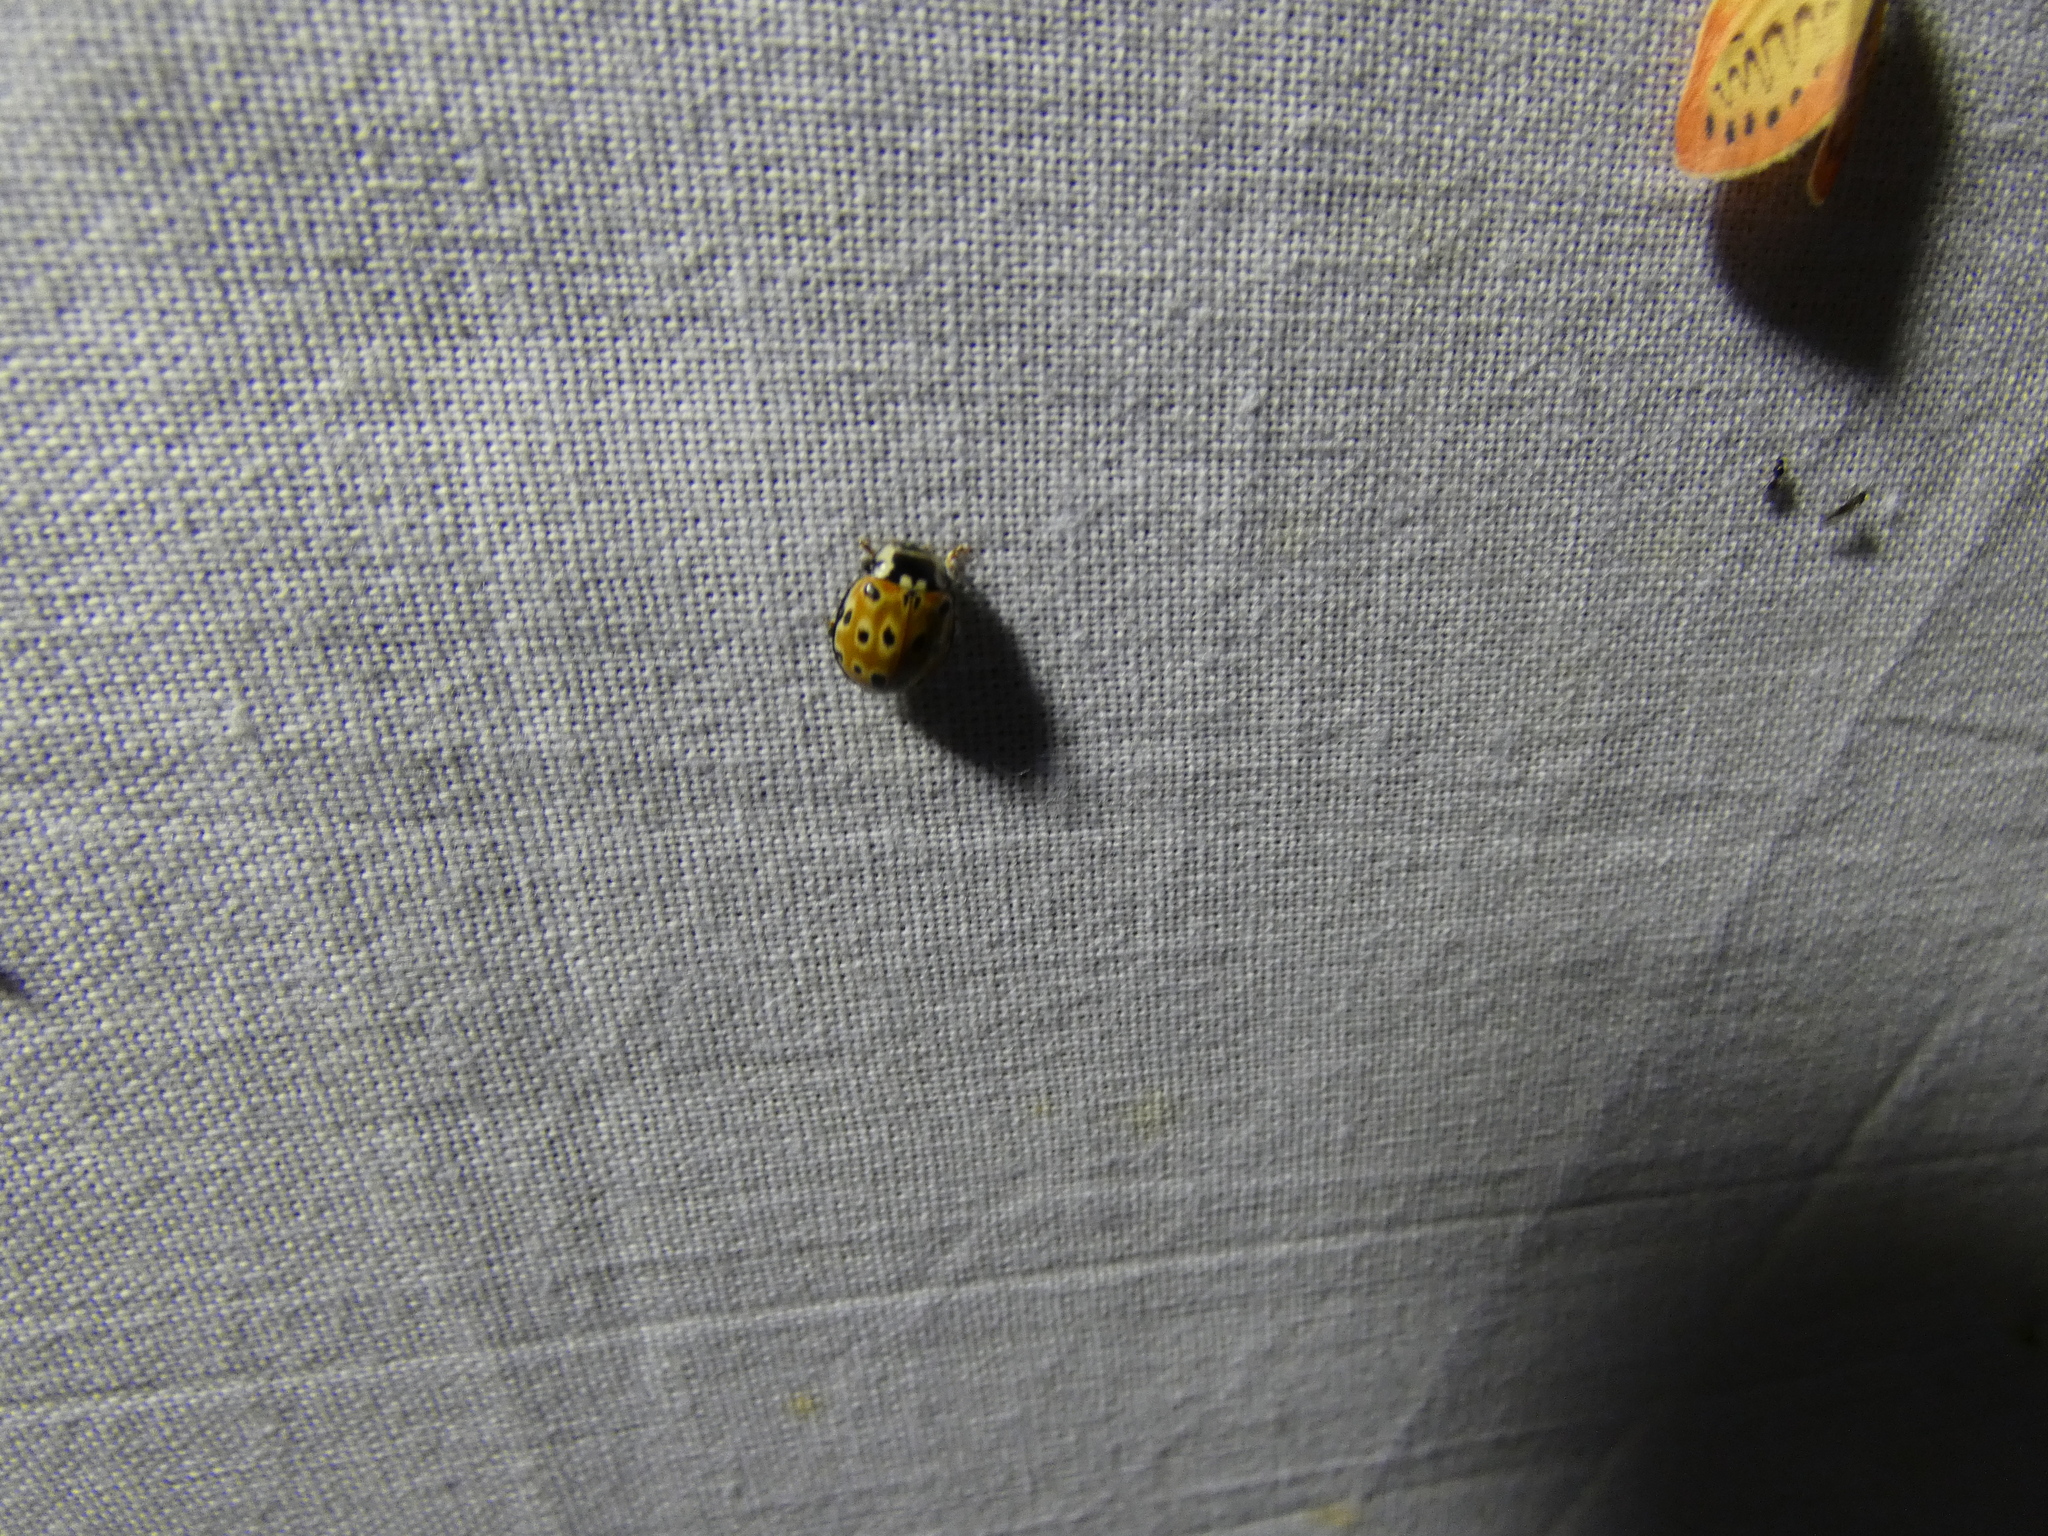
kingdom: Animalia
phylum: Arthropoda
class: Insecta
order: Coleoptera
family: Coccinellidae
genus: Anatis
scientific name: Anatis ocellata
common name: Eyed ladybird
